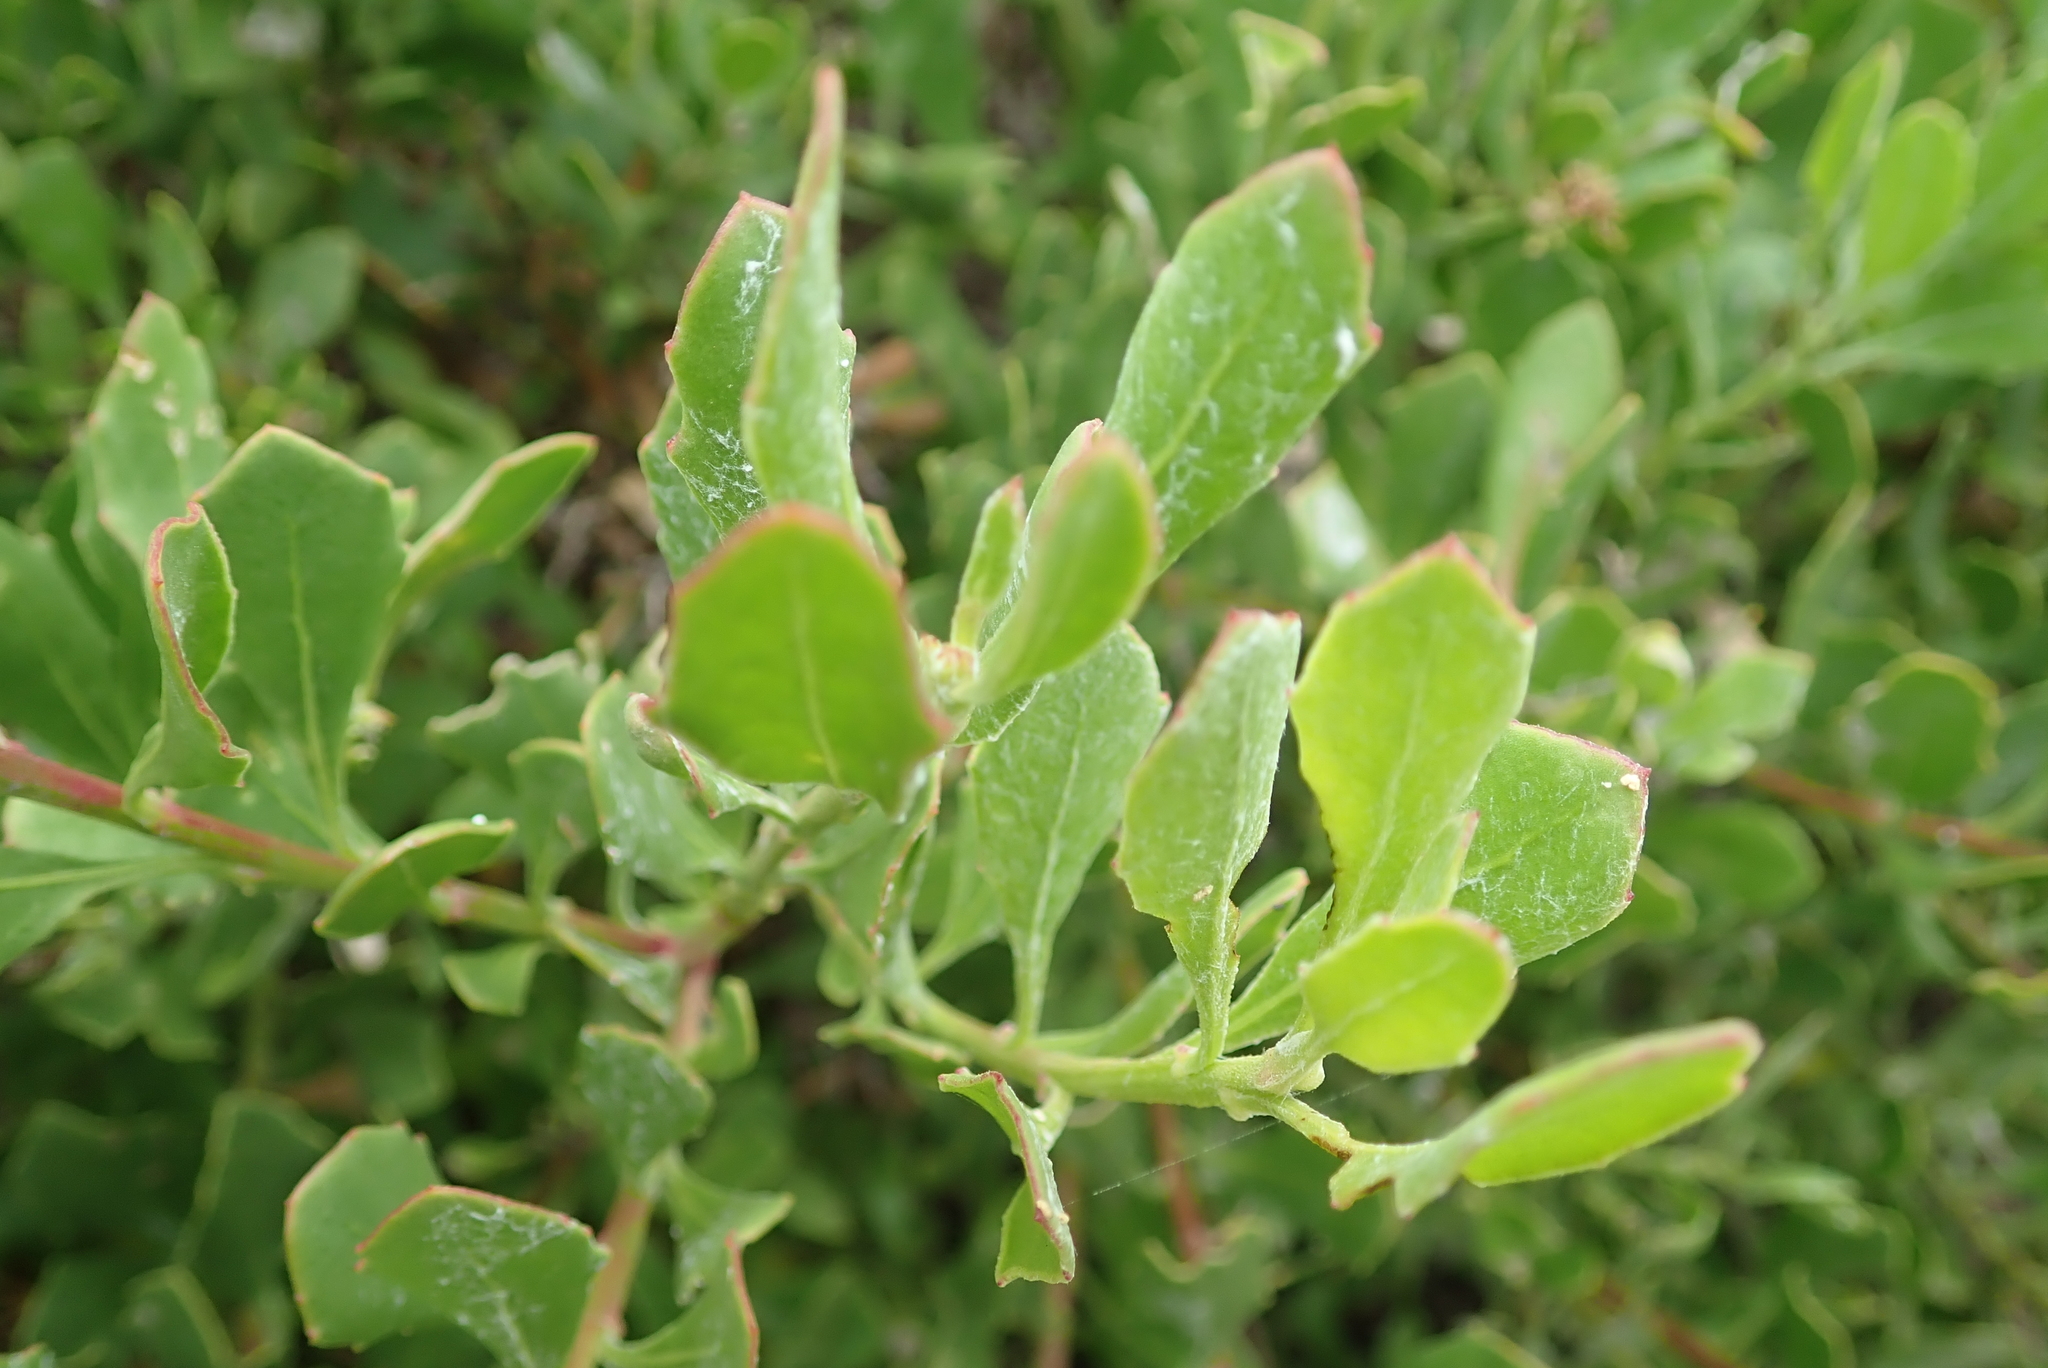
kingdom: Plantae
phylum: Tracheophyta
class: Magnoliopsida
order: Asterales
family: Asteraceae
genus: Osteospermum
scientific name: Osteospermum moniliferum
